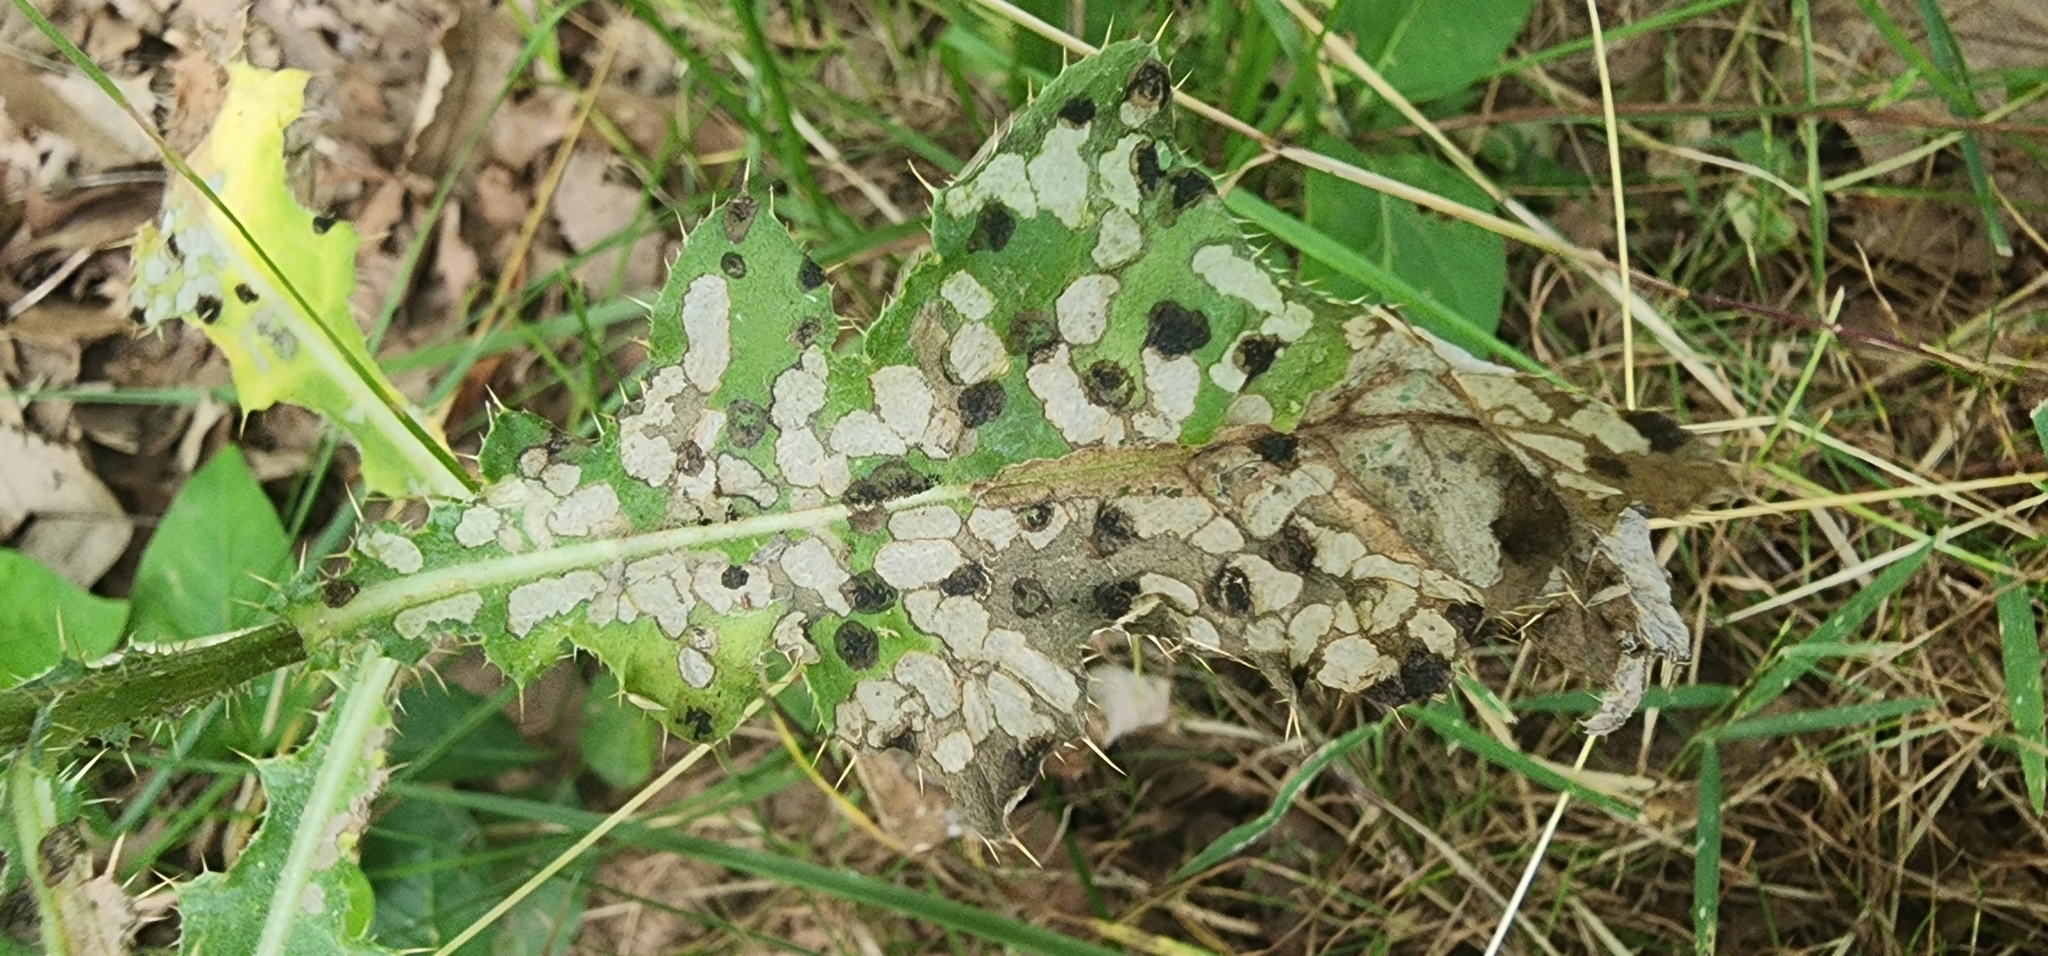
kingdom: Animalia
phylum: Arthropoda
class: Insecta
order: Coleoptera
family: Chrysomelidae
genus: Cassida
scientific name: Cassida rubiginosa
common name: Thistle tortoise beetle
